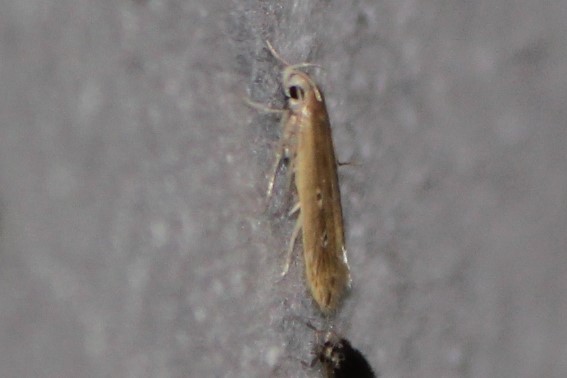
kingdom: Animalia
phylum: Arthropoda
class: Insecta
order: Lepidoptera
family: Cosmopterigidae
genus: Limnaecia
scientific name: Limnaecia phragmitella
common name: Bulrush cosmet
